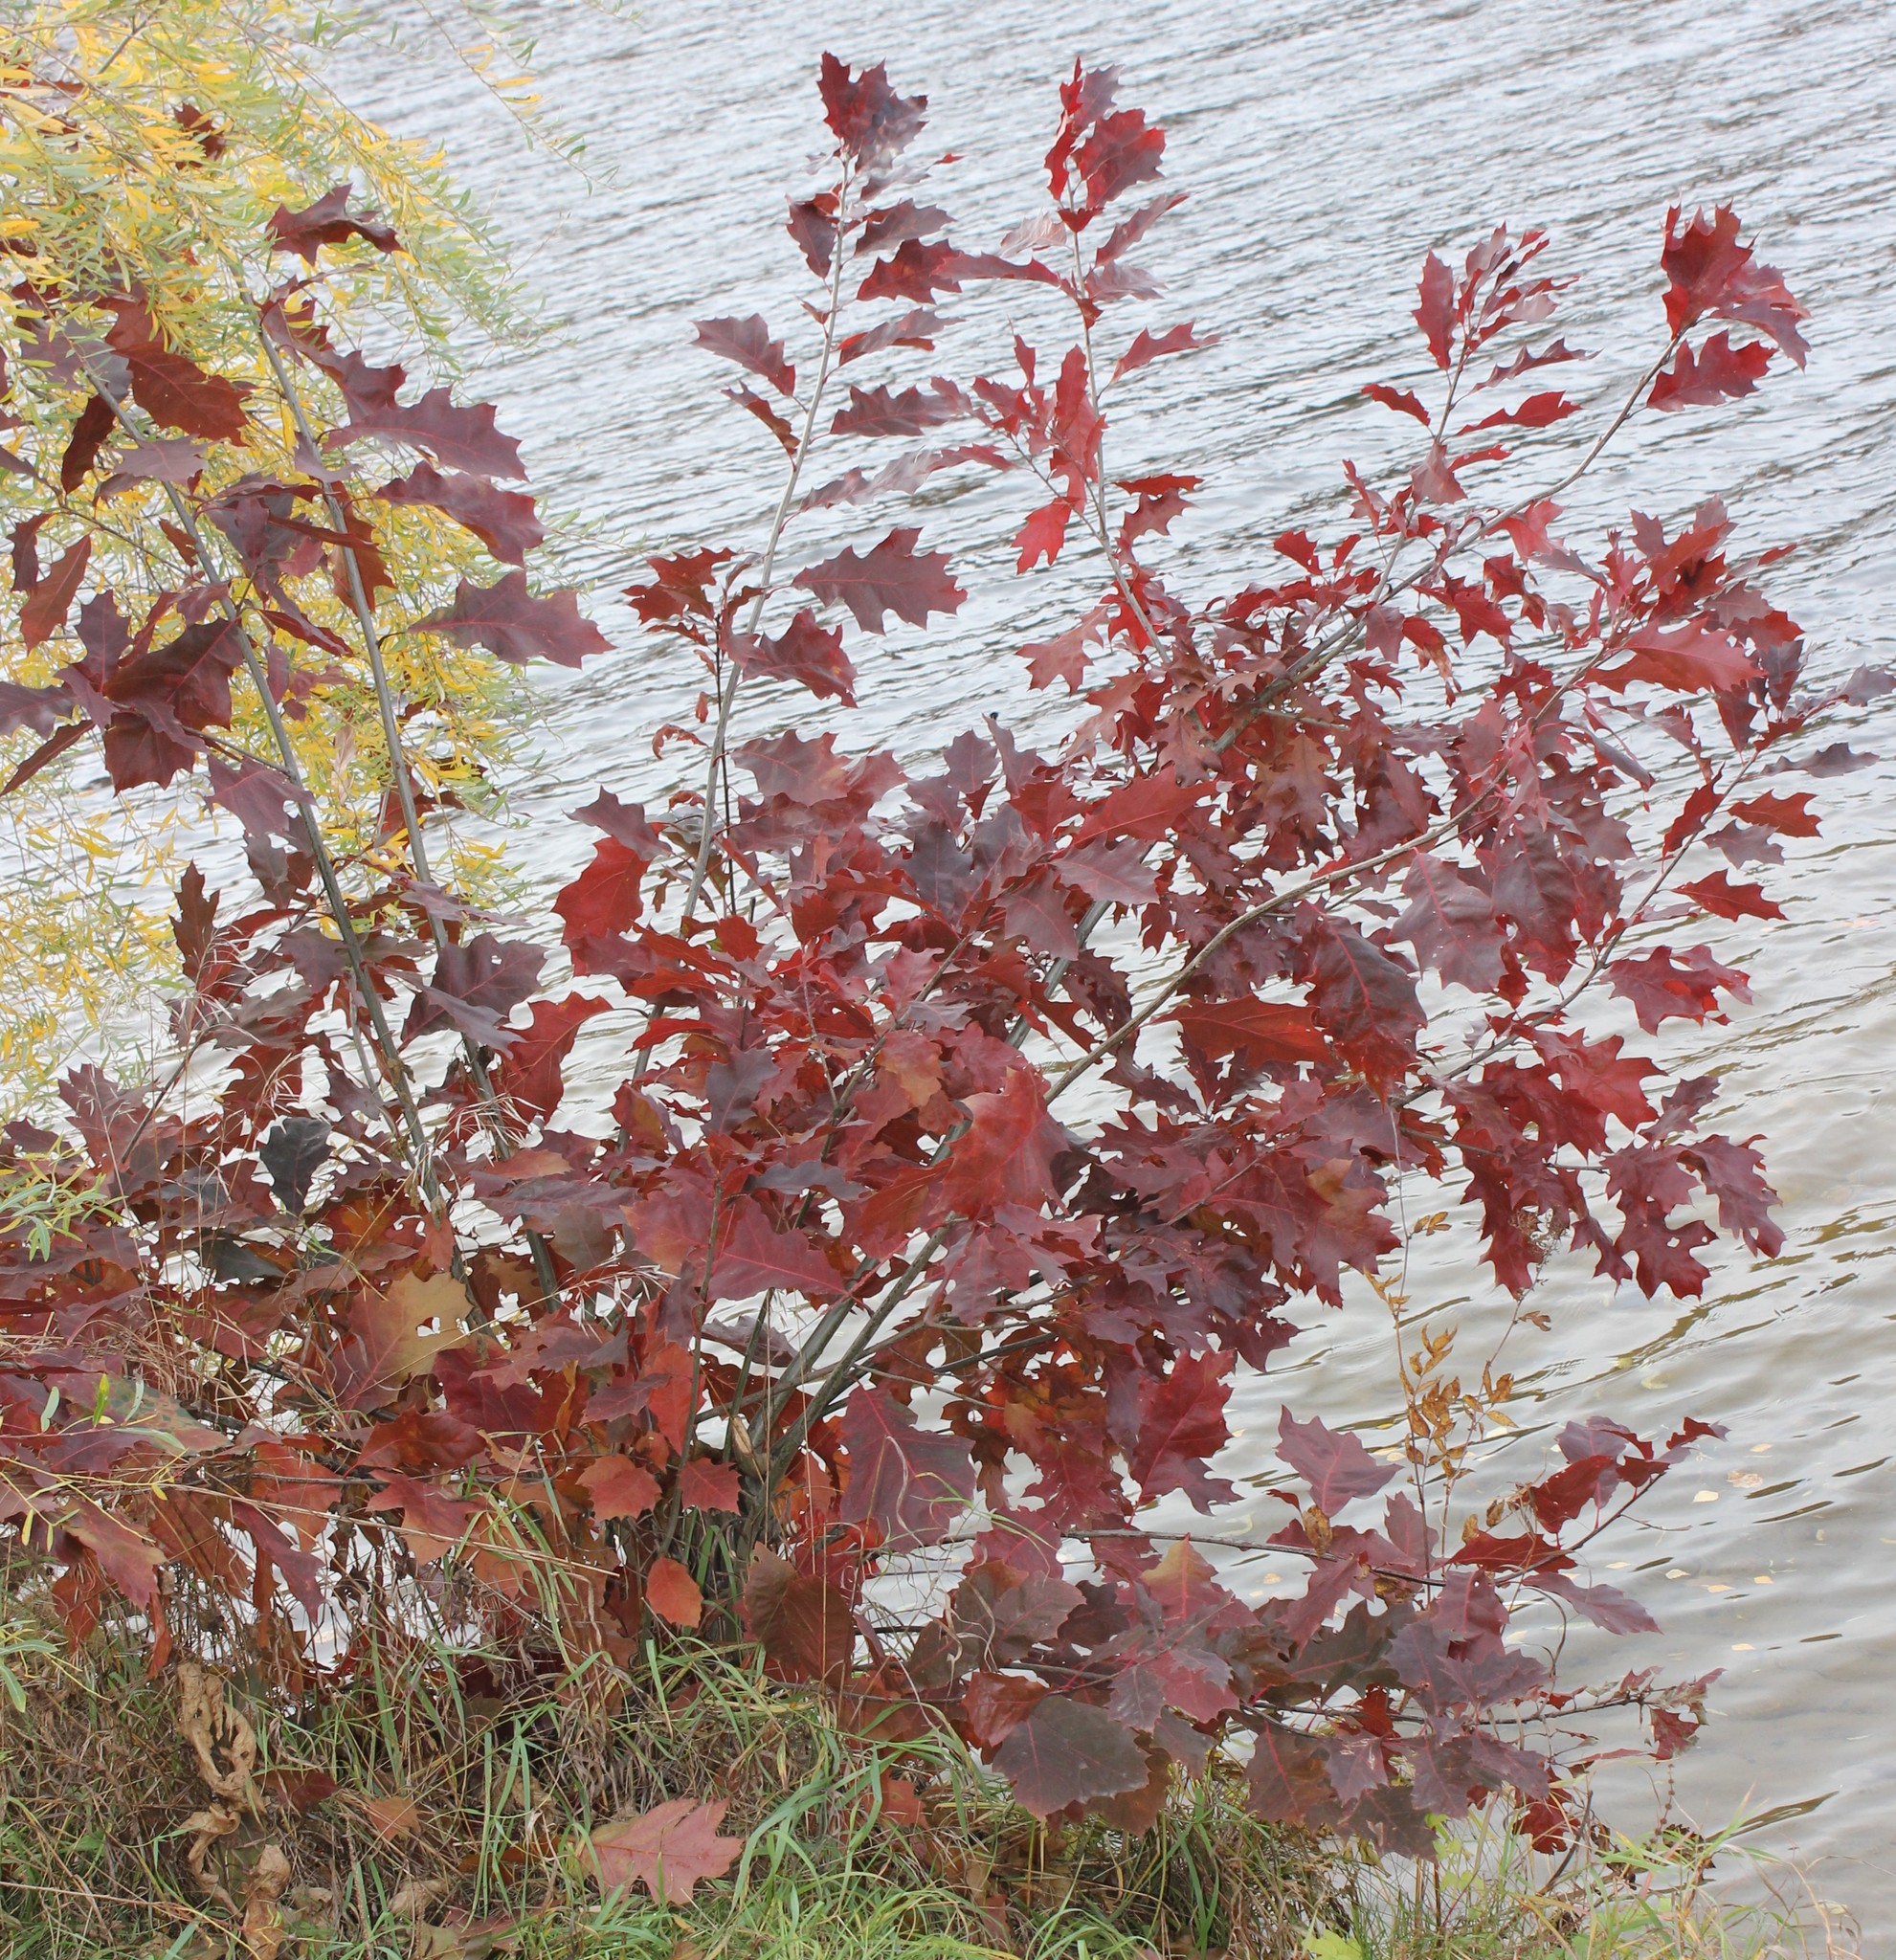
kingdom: Plantae
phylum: Tracheophyta
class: Magnoliopsida
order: Fagales
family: Fagaceae
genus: Quercus
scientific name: Quercus rubra
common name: Red oak
